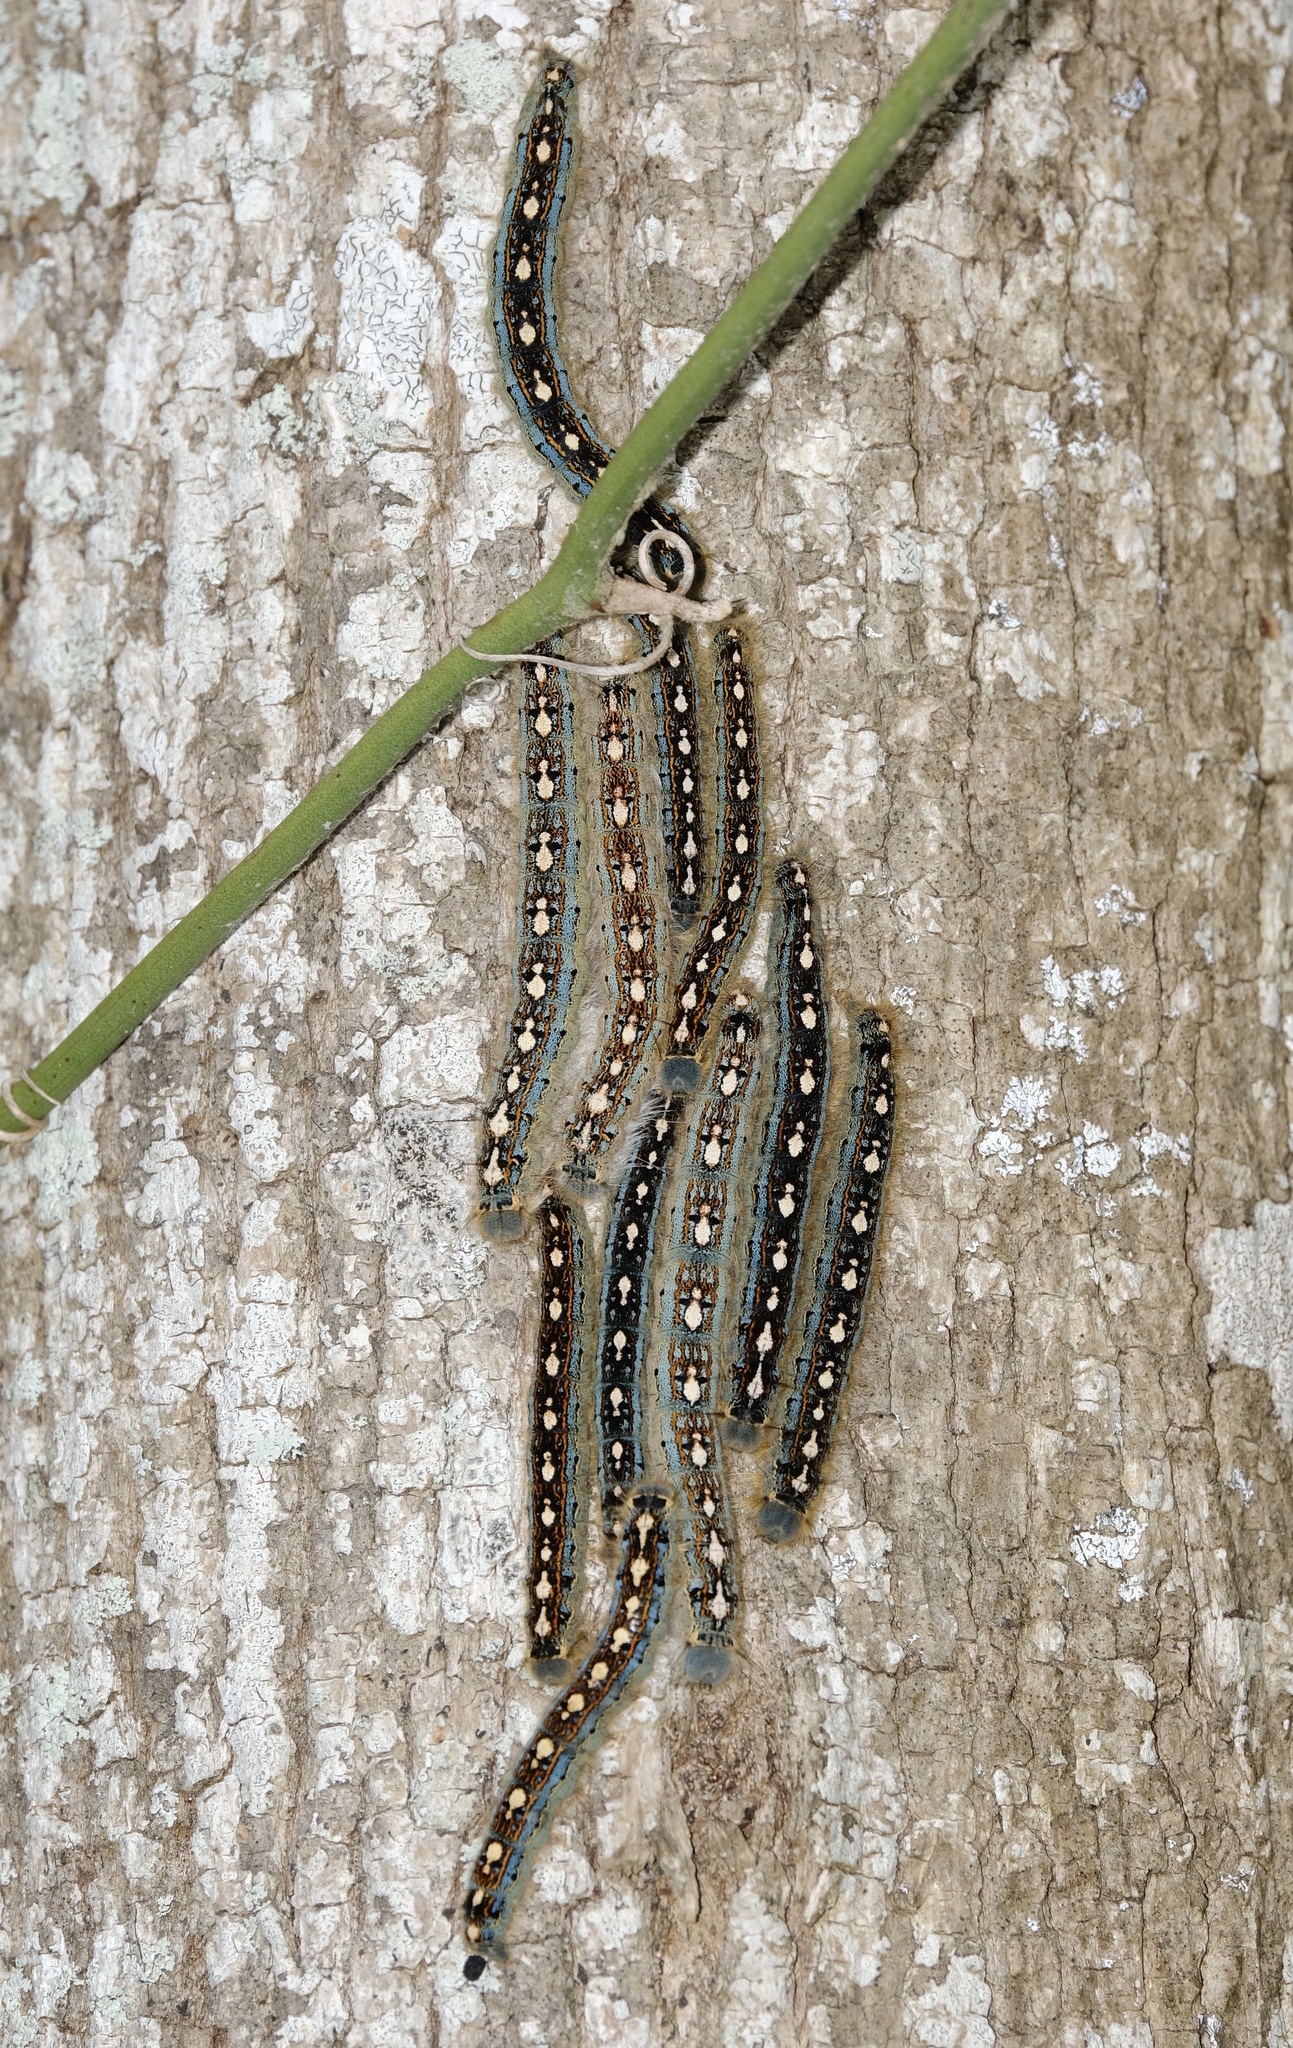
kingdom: Animalia
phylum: Arthropoda
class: Insecta
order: Lepidoptera
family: Lasiocampidae
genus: Malacosoma
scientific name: Malacosoma disstria
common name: Forest tent caterpillar
